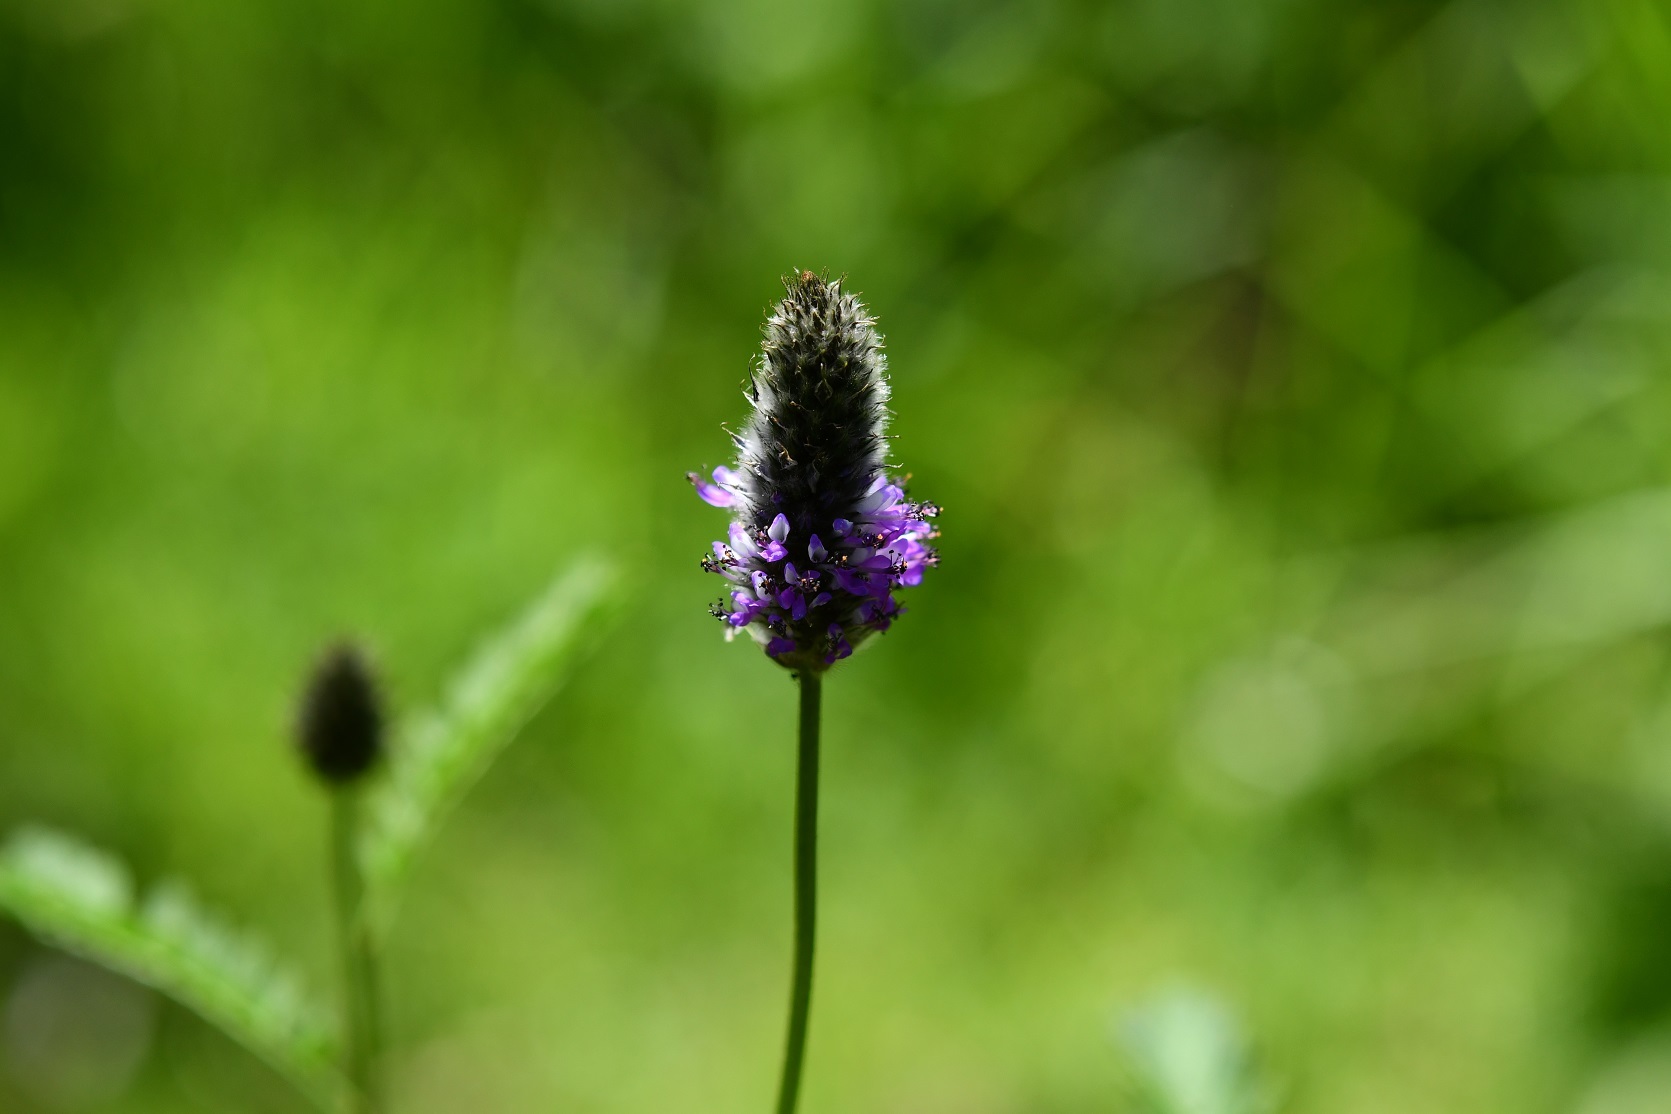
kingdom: Plantae
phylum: Tracheophyta
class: Magnoliopsida
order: Fabales
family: Fabaceae
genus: Dalea
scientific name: Dalea leporina
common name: Foxtail dalea
